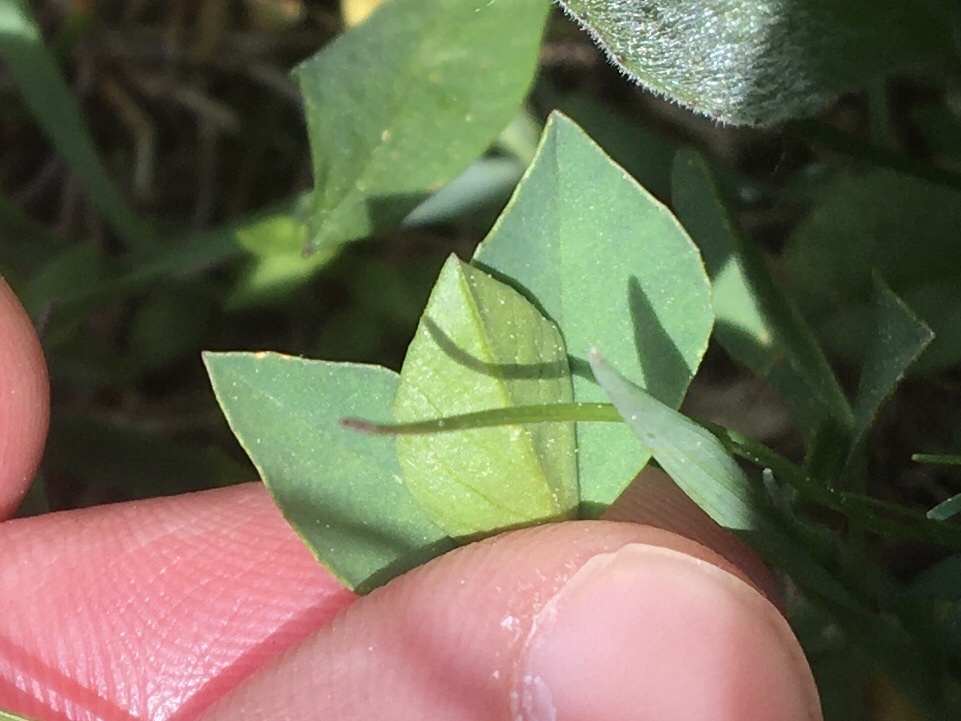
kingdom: Plantae
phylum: Tracheophyta
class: Magnoliopsida
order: Fabales
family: Fabaceae
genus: Trifolium
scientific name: Trifolium parryi
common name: Parry's clover
